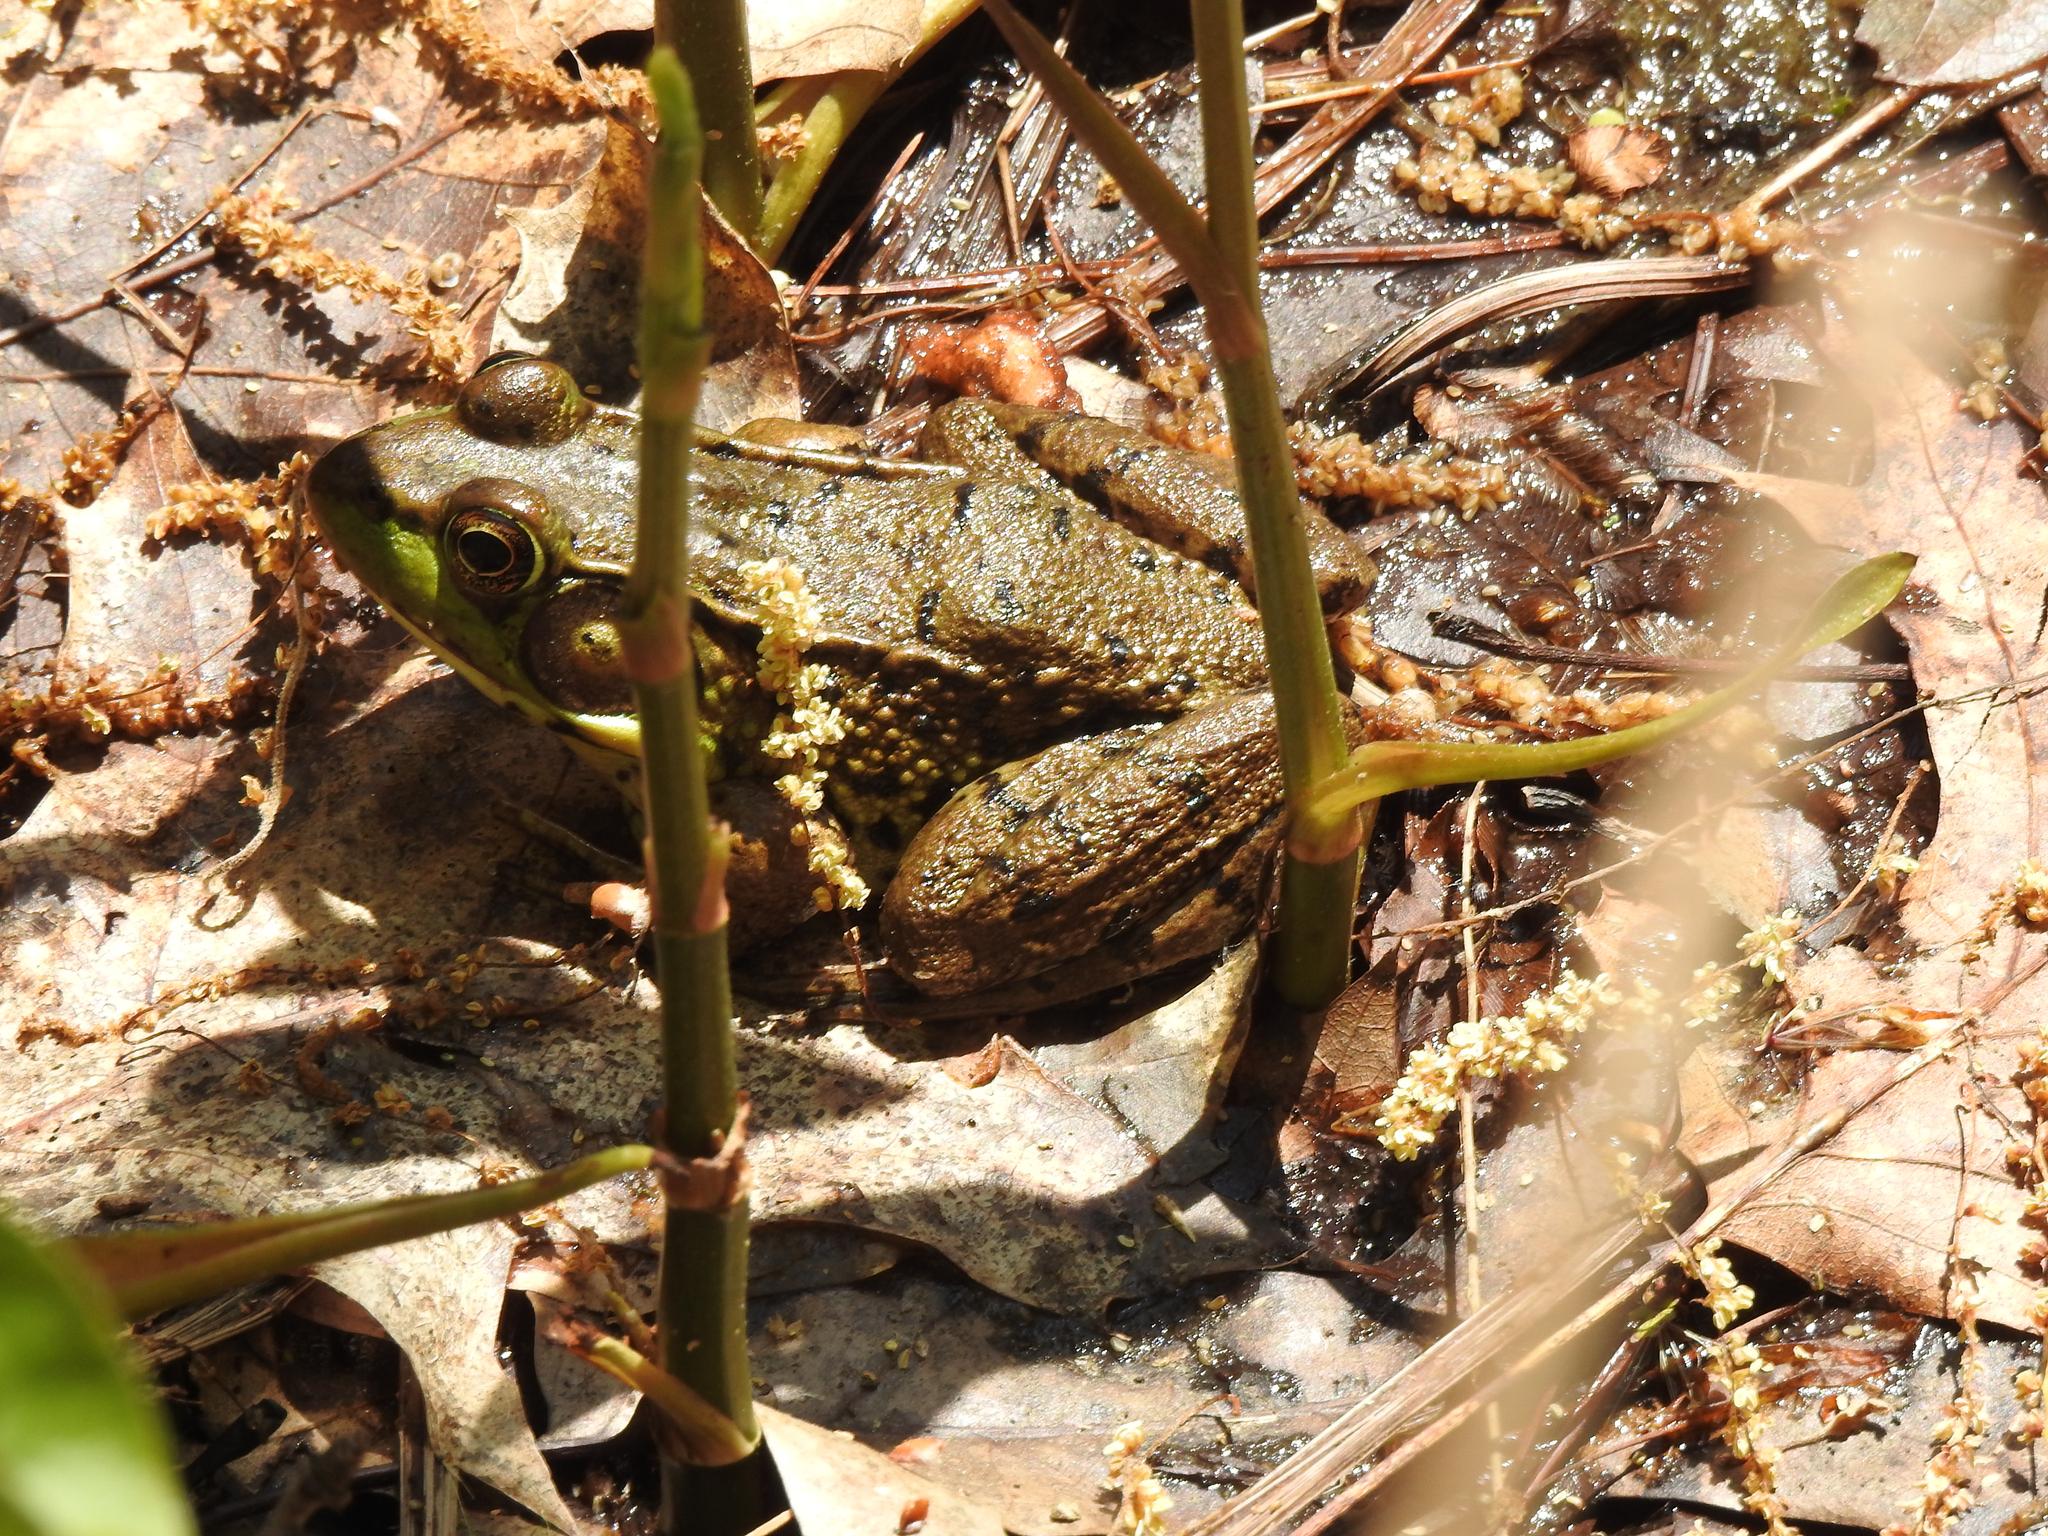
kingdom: Animalia
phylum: Chordata
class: Amphibia
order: Anura
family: Ranidae
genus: Lithobates
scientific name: Lithobates clamitans
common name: Green frog
